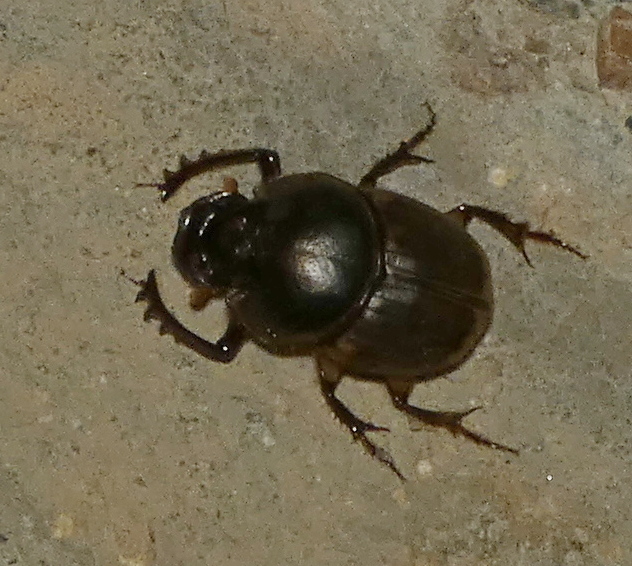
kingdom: Animalia
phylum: Arthropoda
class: Insecta
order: Coleoptera
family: Scarabaeidae
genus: Digitonthophagus
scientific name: Digitonthophagus gazella
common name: Brown dung beetle
